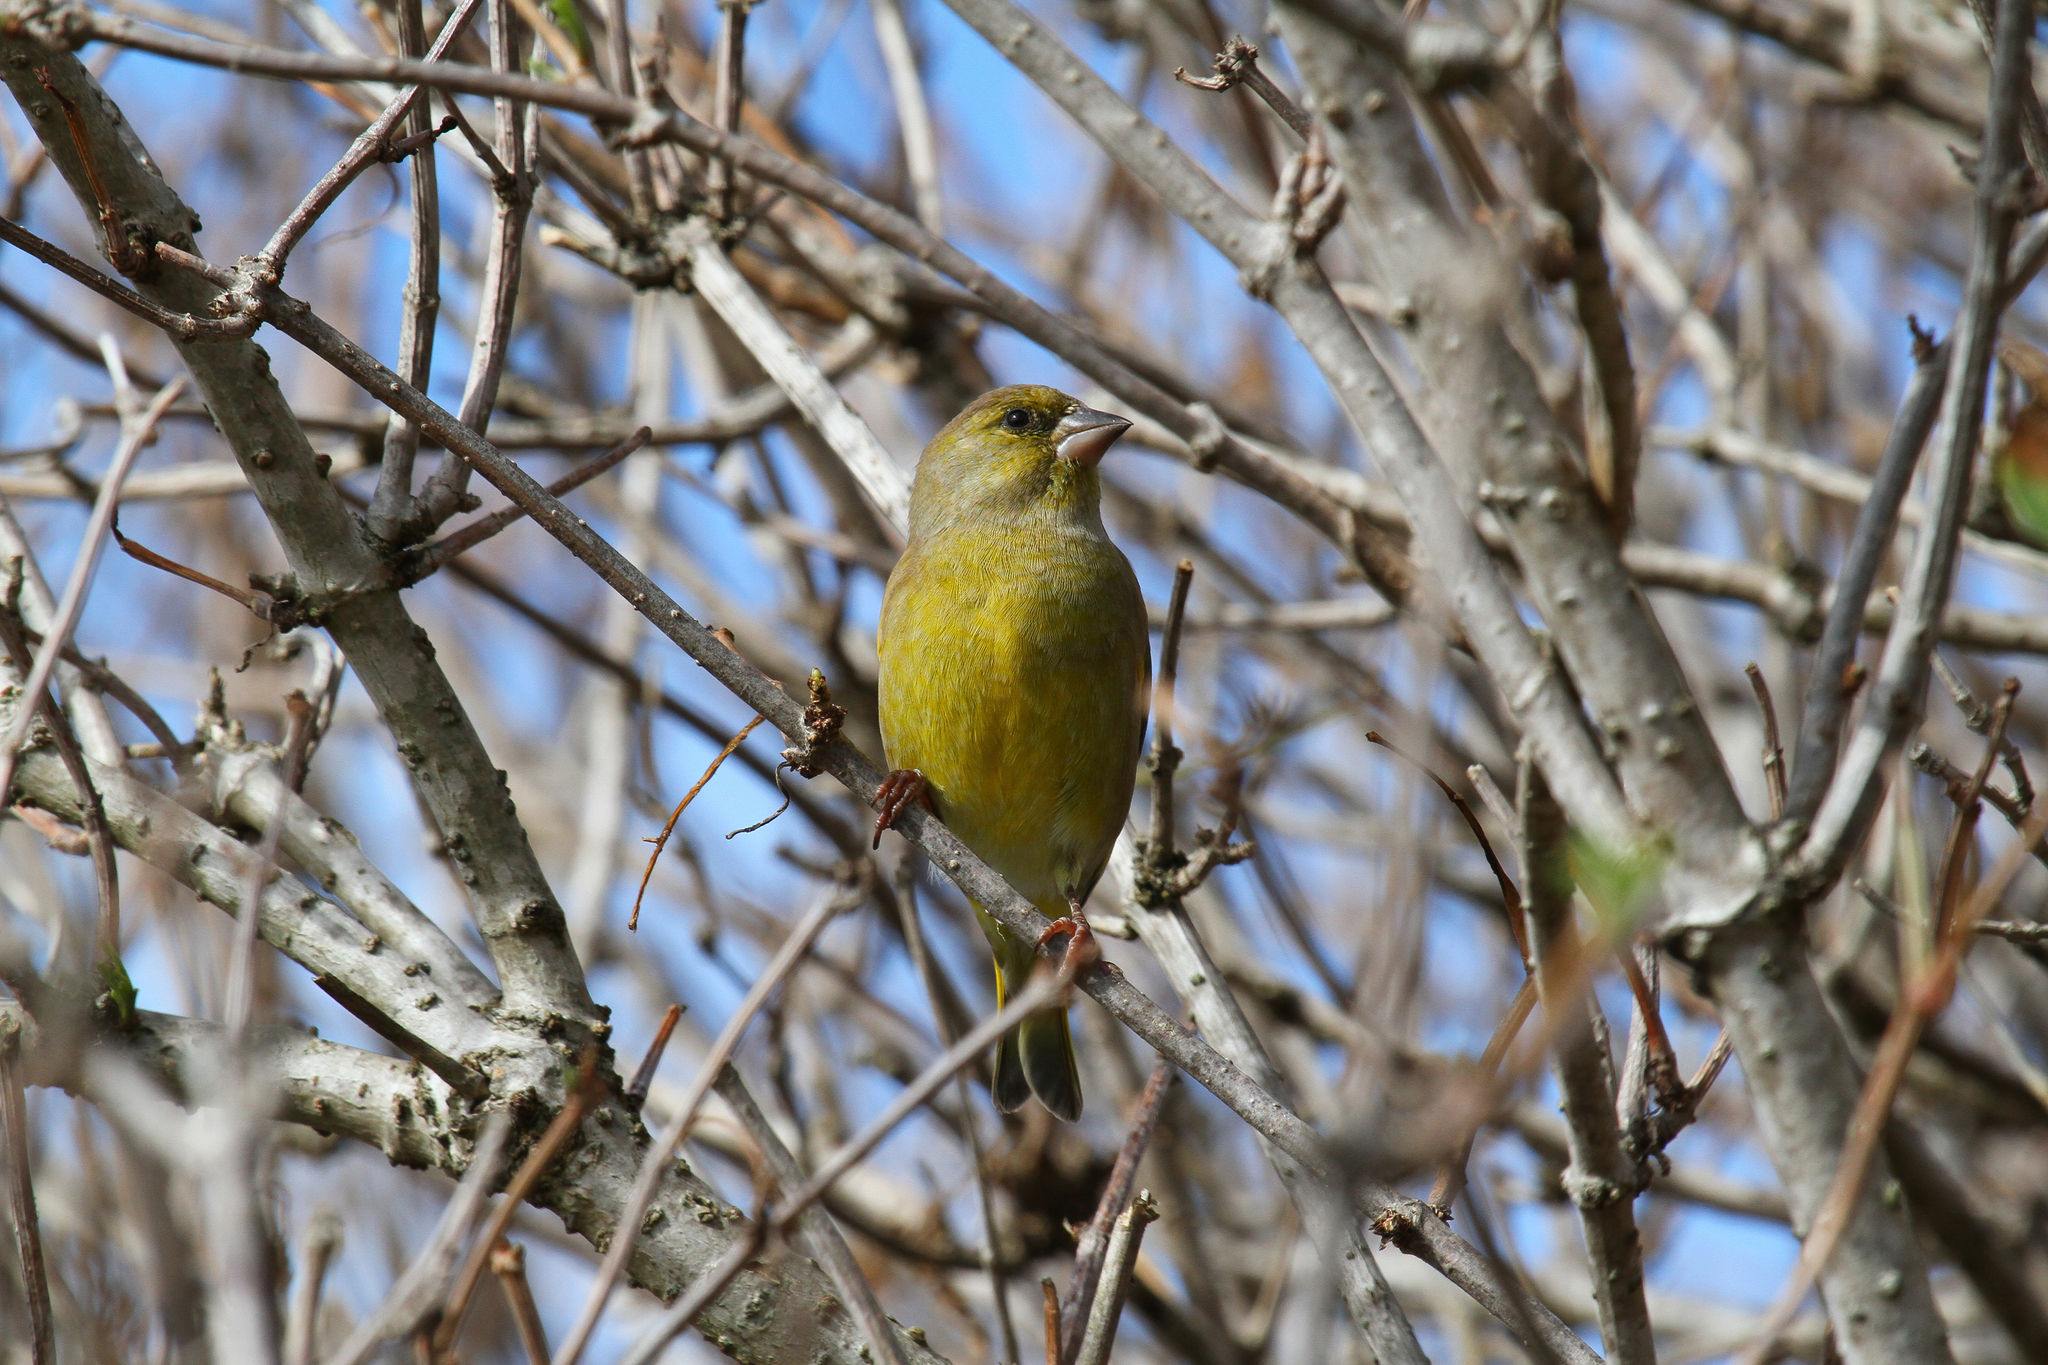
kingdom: Plantae
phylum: Tracheophyta
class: Liliopsida
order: Poales
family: Poaceae
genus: Chloris
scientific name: Chloris chloris
